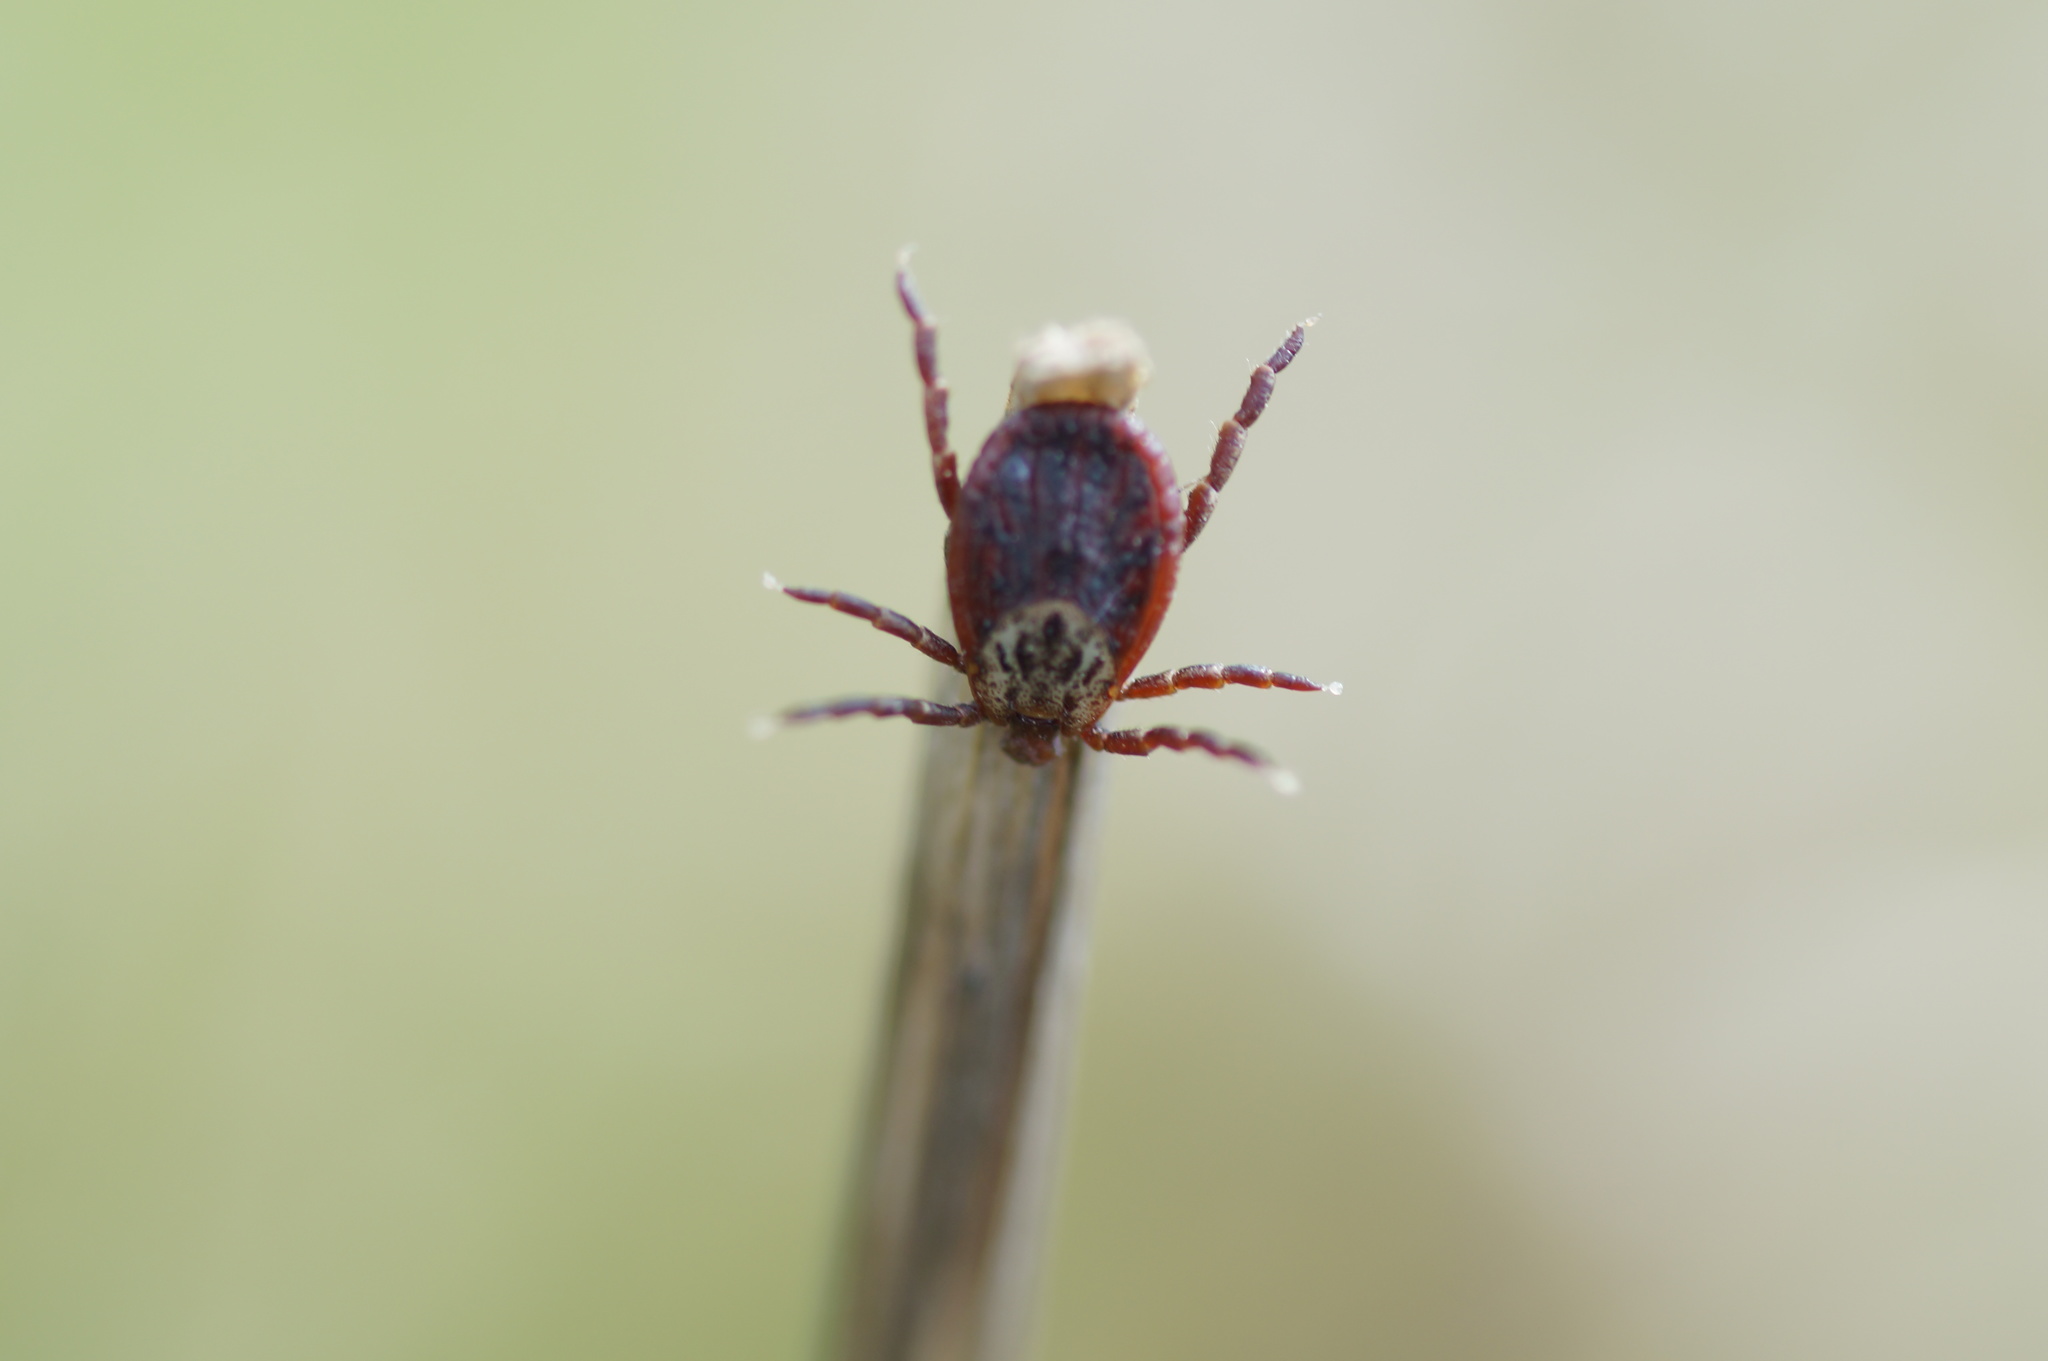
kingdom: Animalia
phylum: Arthropoda
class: Arachnida
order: Ixodida
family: Ixodidae
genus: Dermacentor
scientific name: Dermacentor reticulatus
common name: Ornate cow tick
